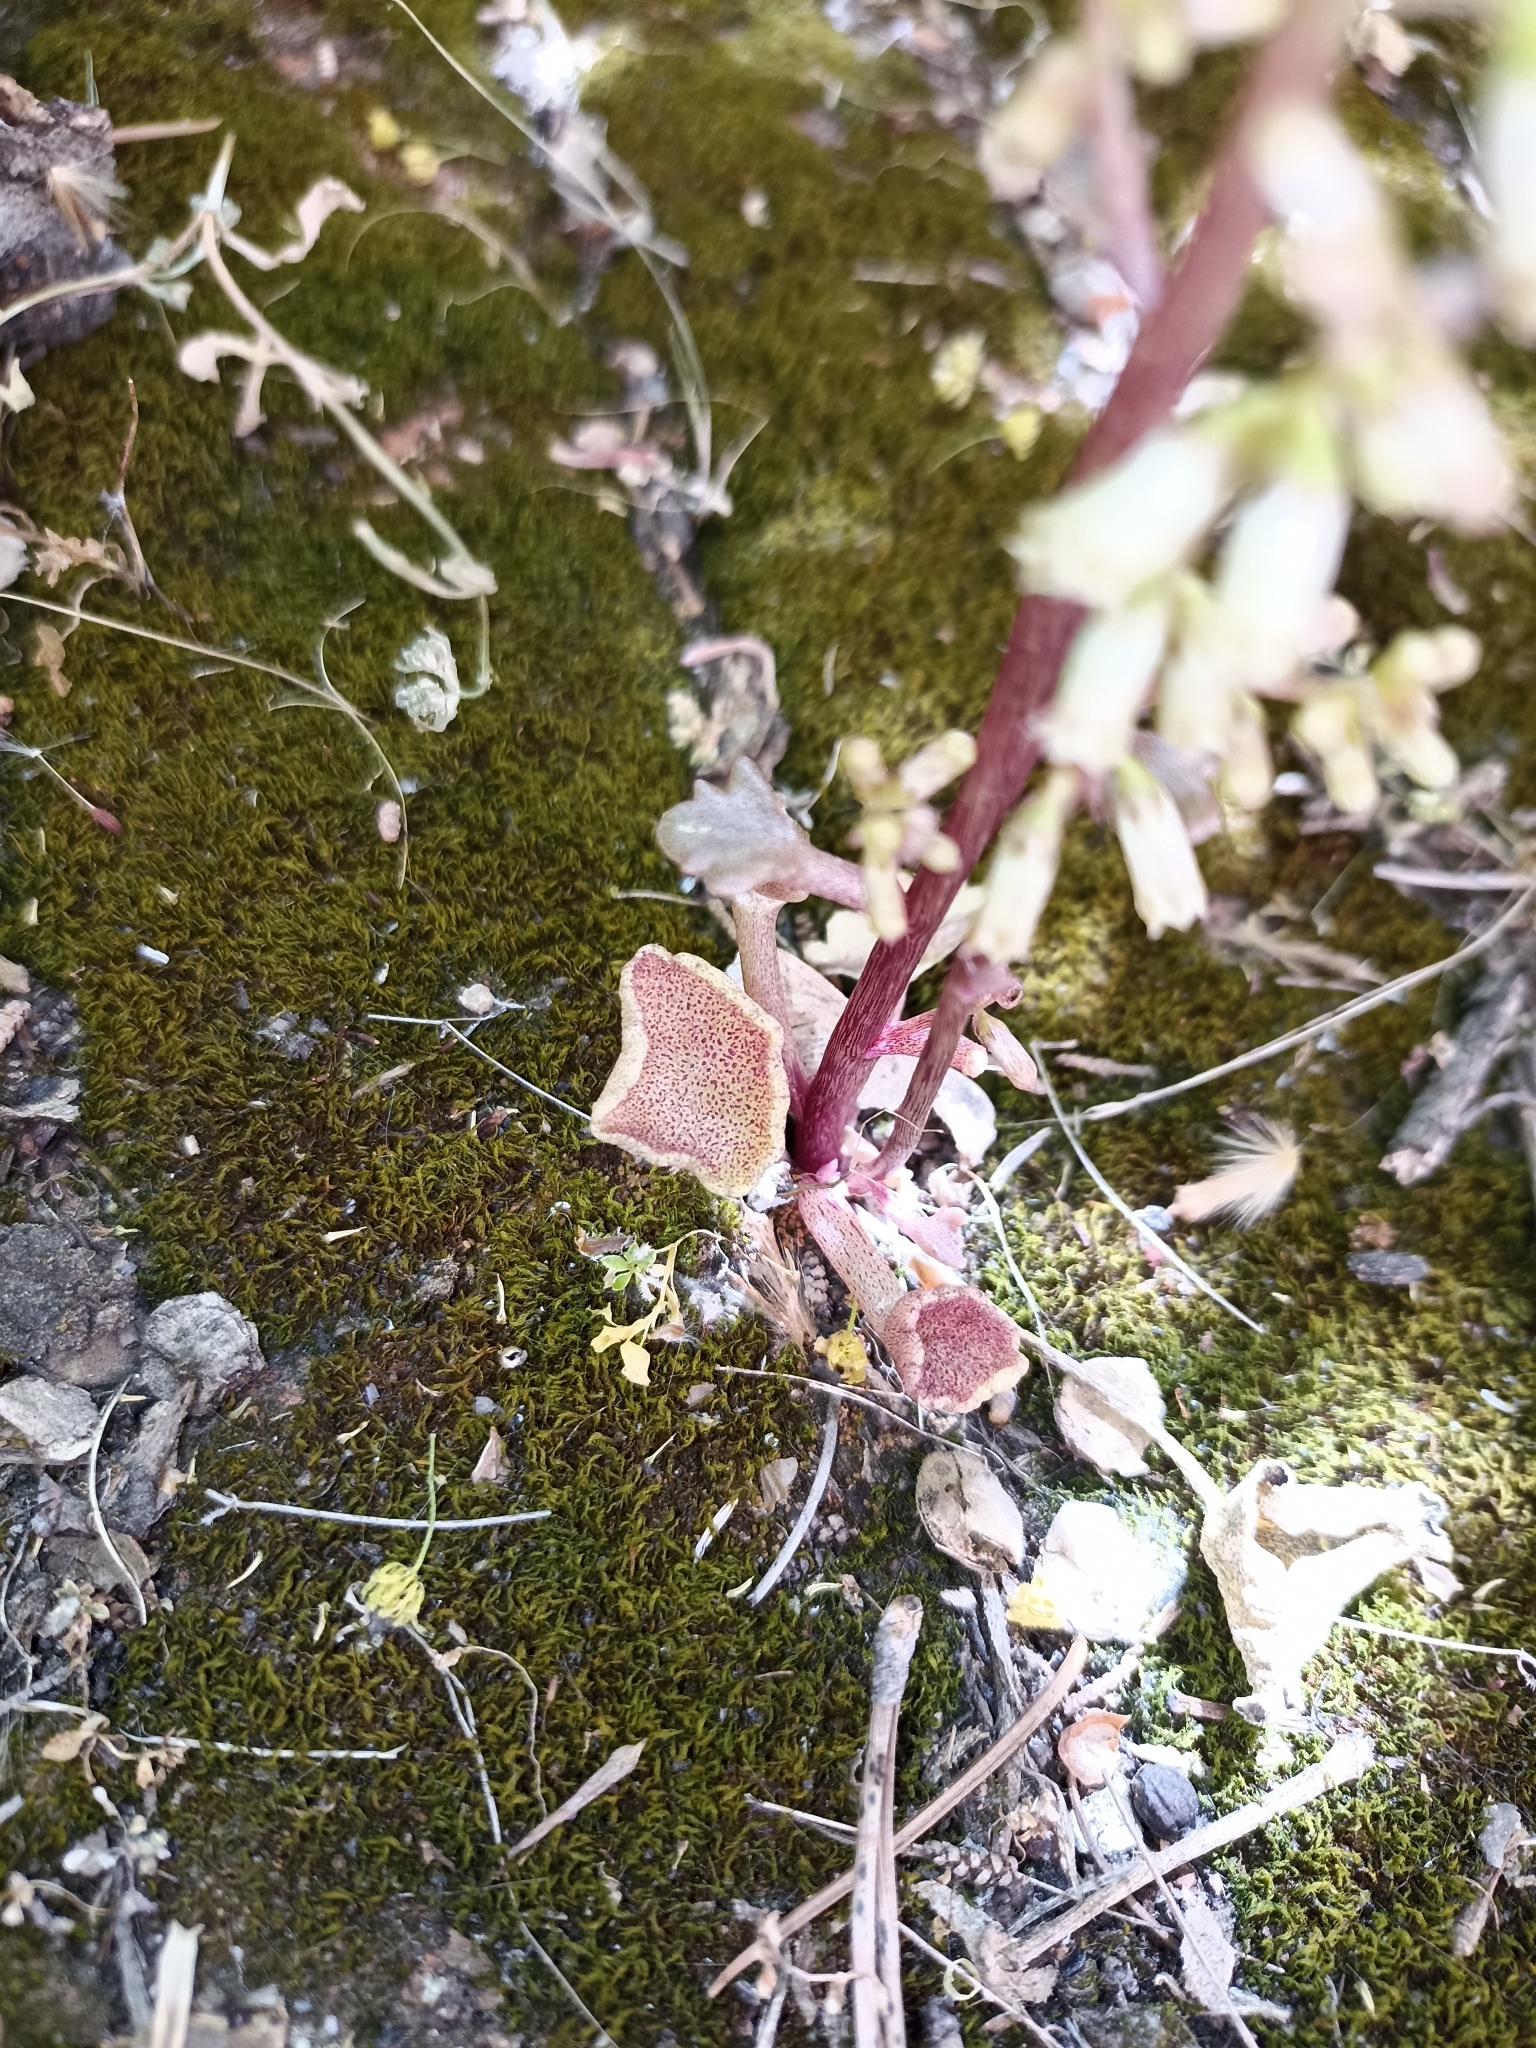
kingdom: Plantae
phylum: Tracheophyta
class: Magnoliopsida
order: Saxifragales
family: Crassulaceae
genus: Umbilicus
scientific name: Umbilicus rupestris
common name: Navelwort
